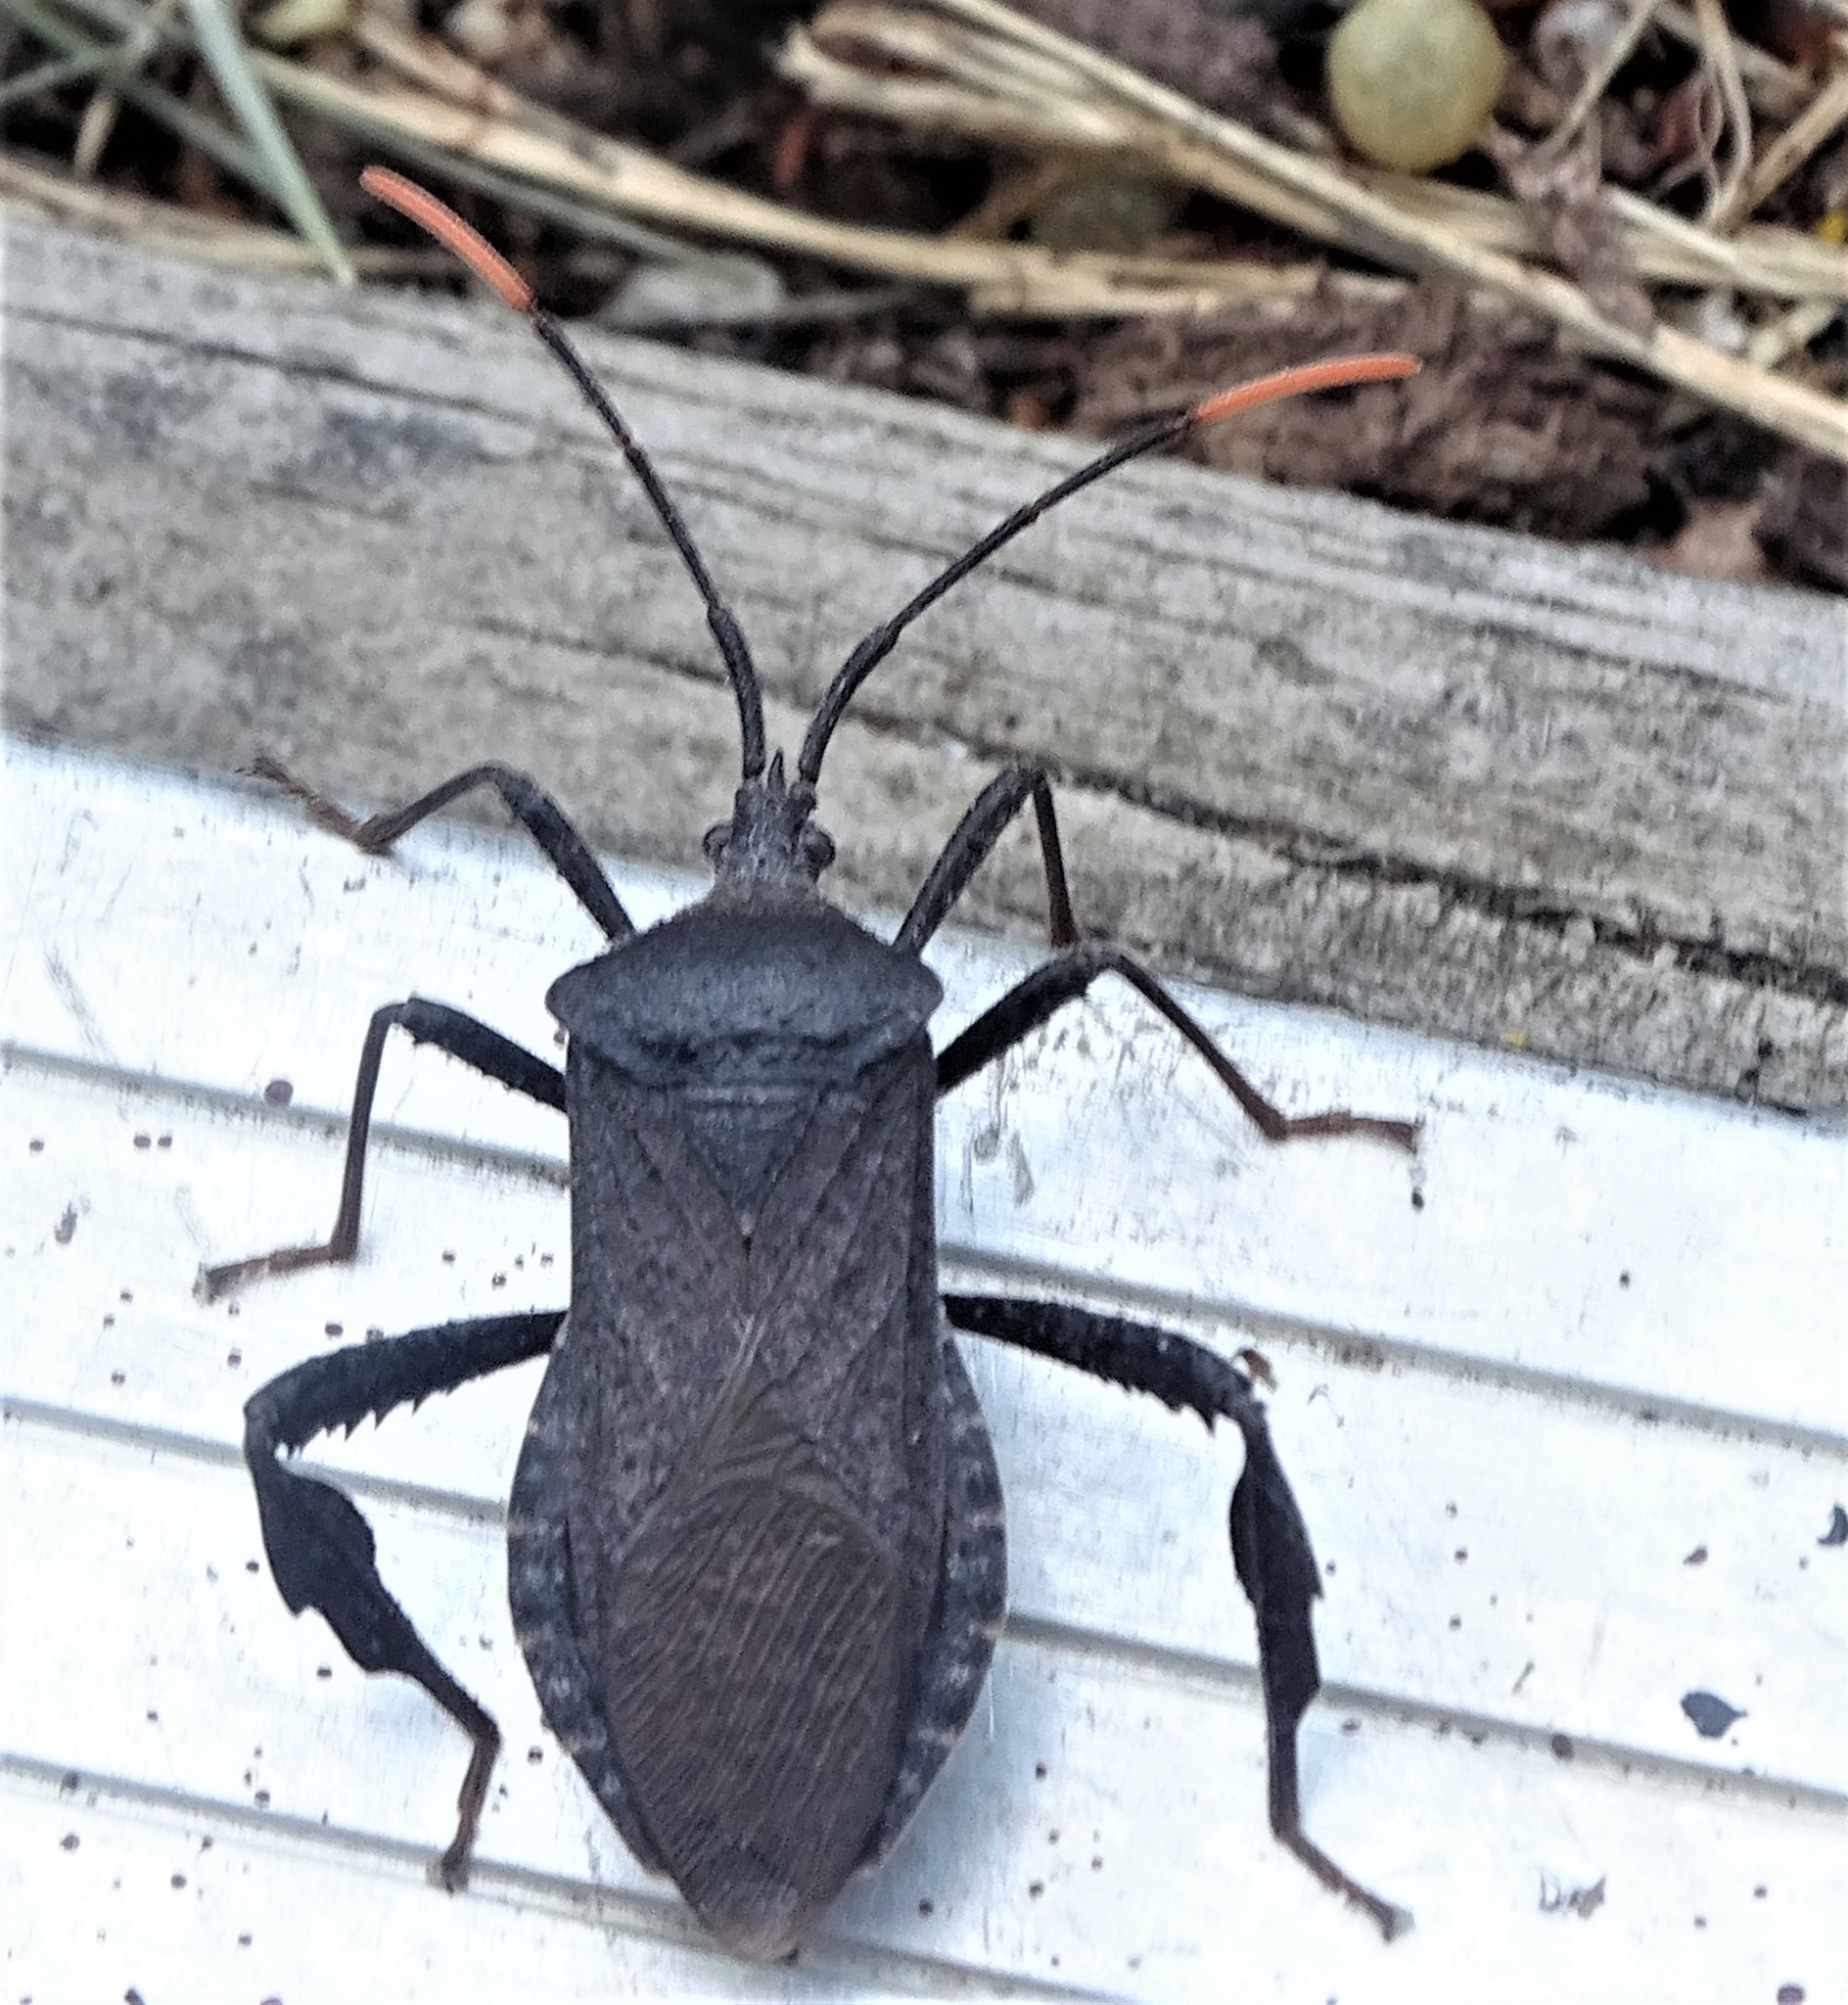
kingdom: Animalia
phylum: Arthropoda
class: Insecta
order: Hemiptera
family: Coreidae
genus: Acanthocephala
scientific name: Acanthocephala terminalis
